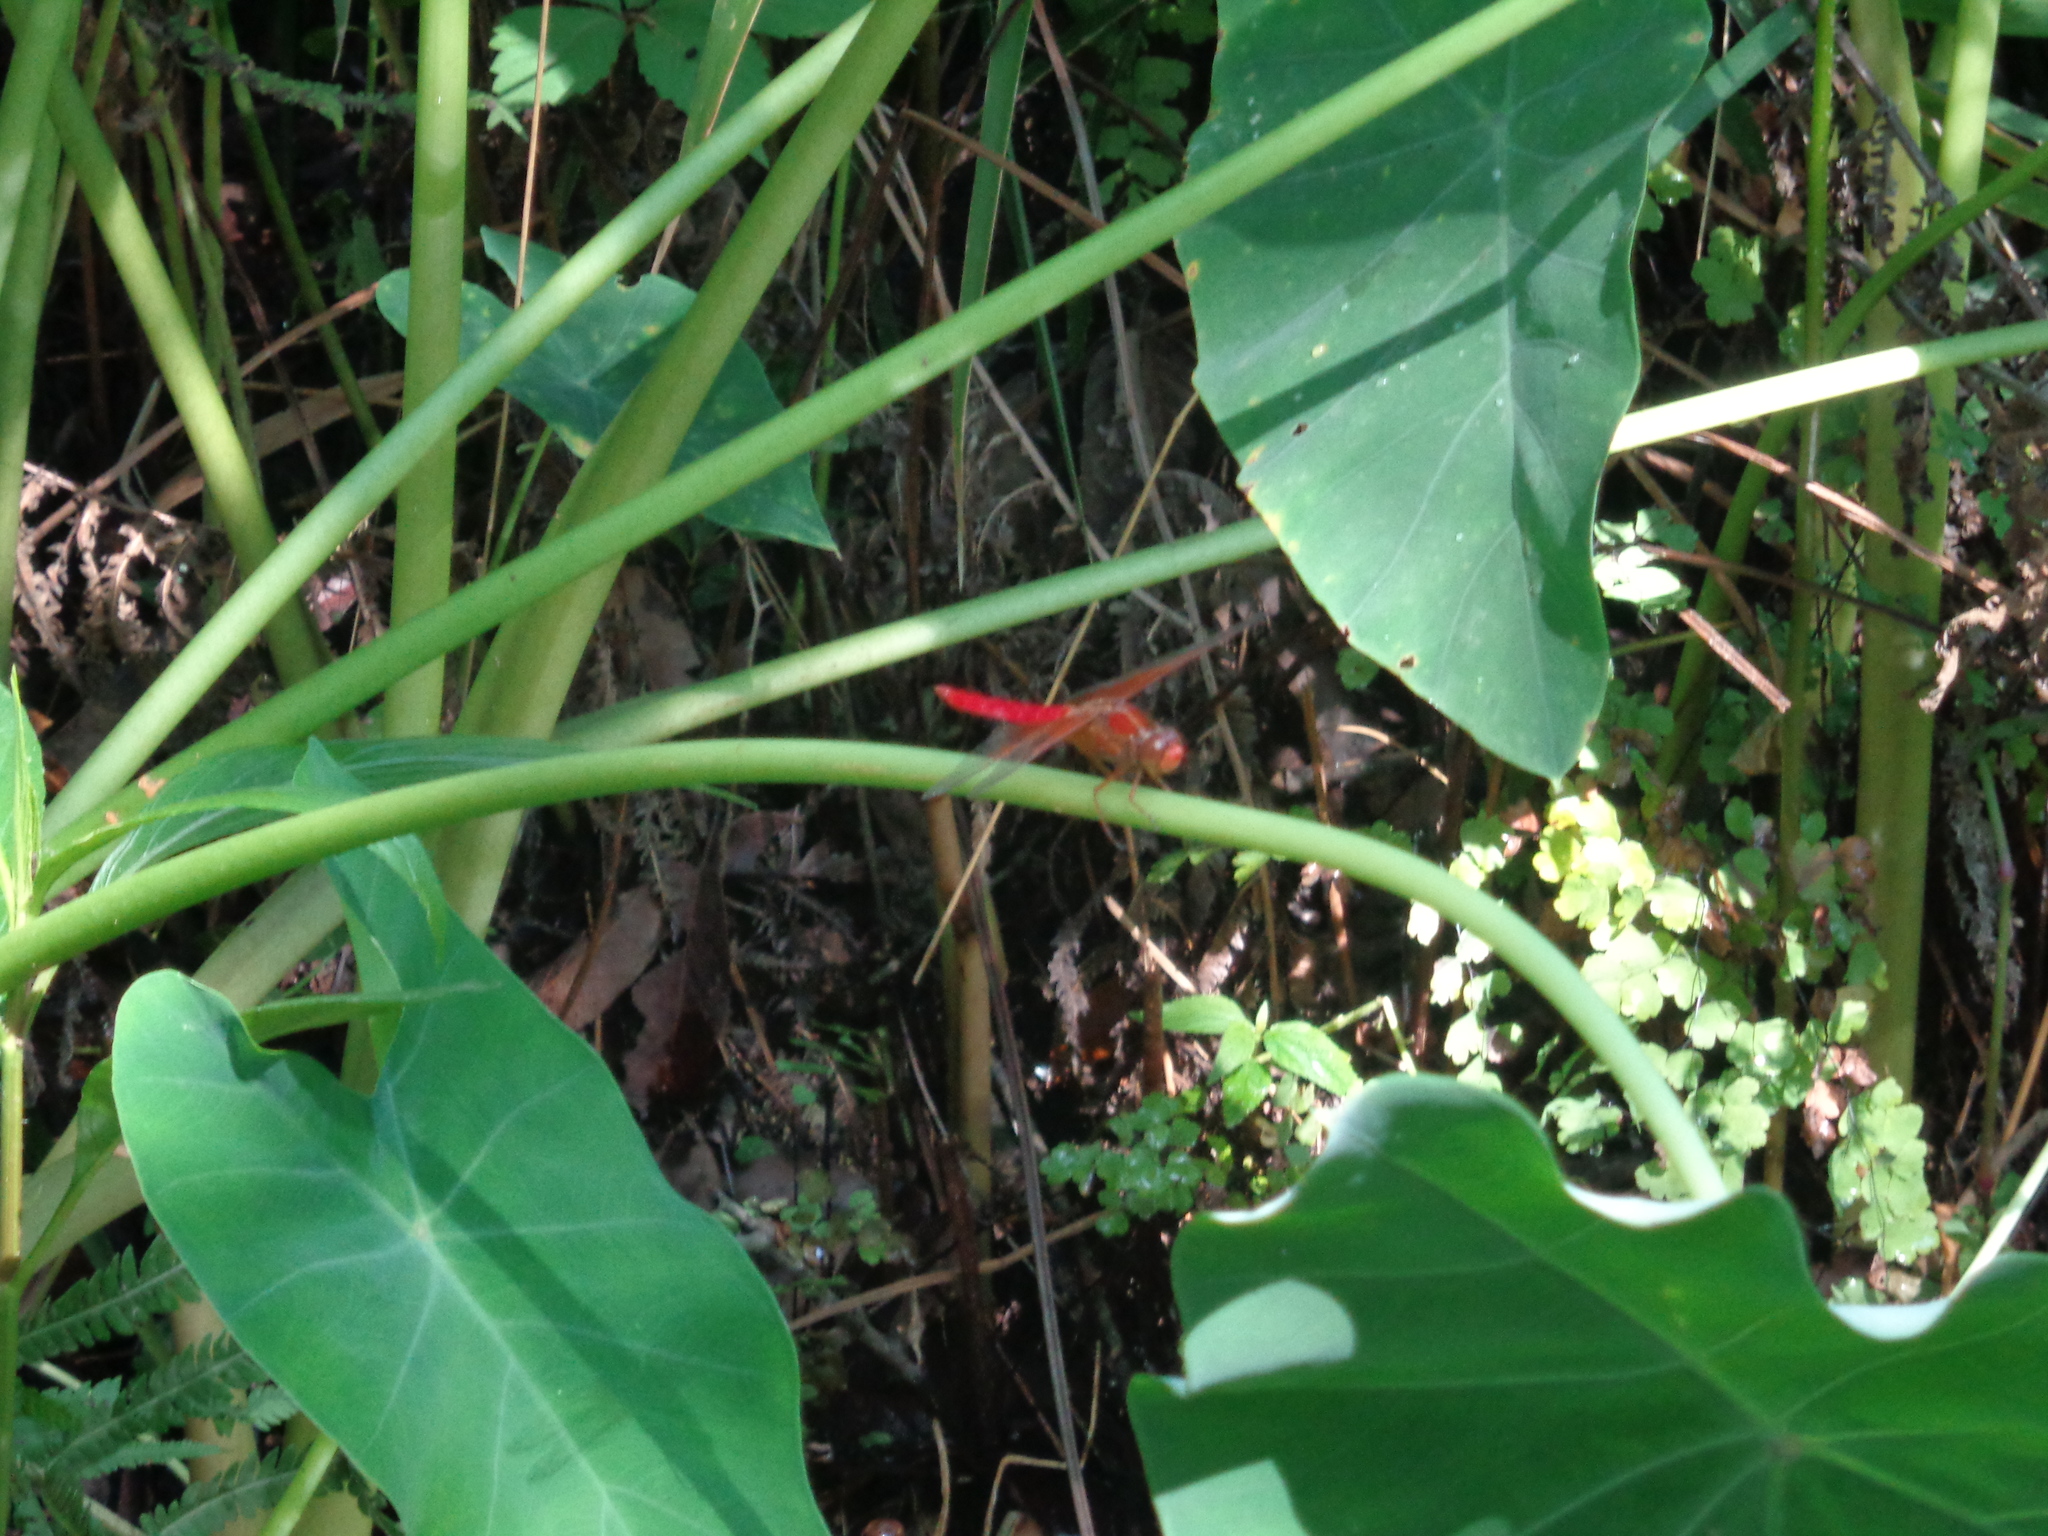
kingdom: Animalia
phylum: Arthropoda
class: Insecta
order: Odonata
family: Libellulidae
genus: Libellula
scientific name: Libellula croceipennis
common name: Neon skimmer
